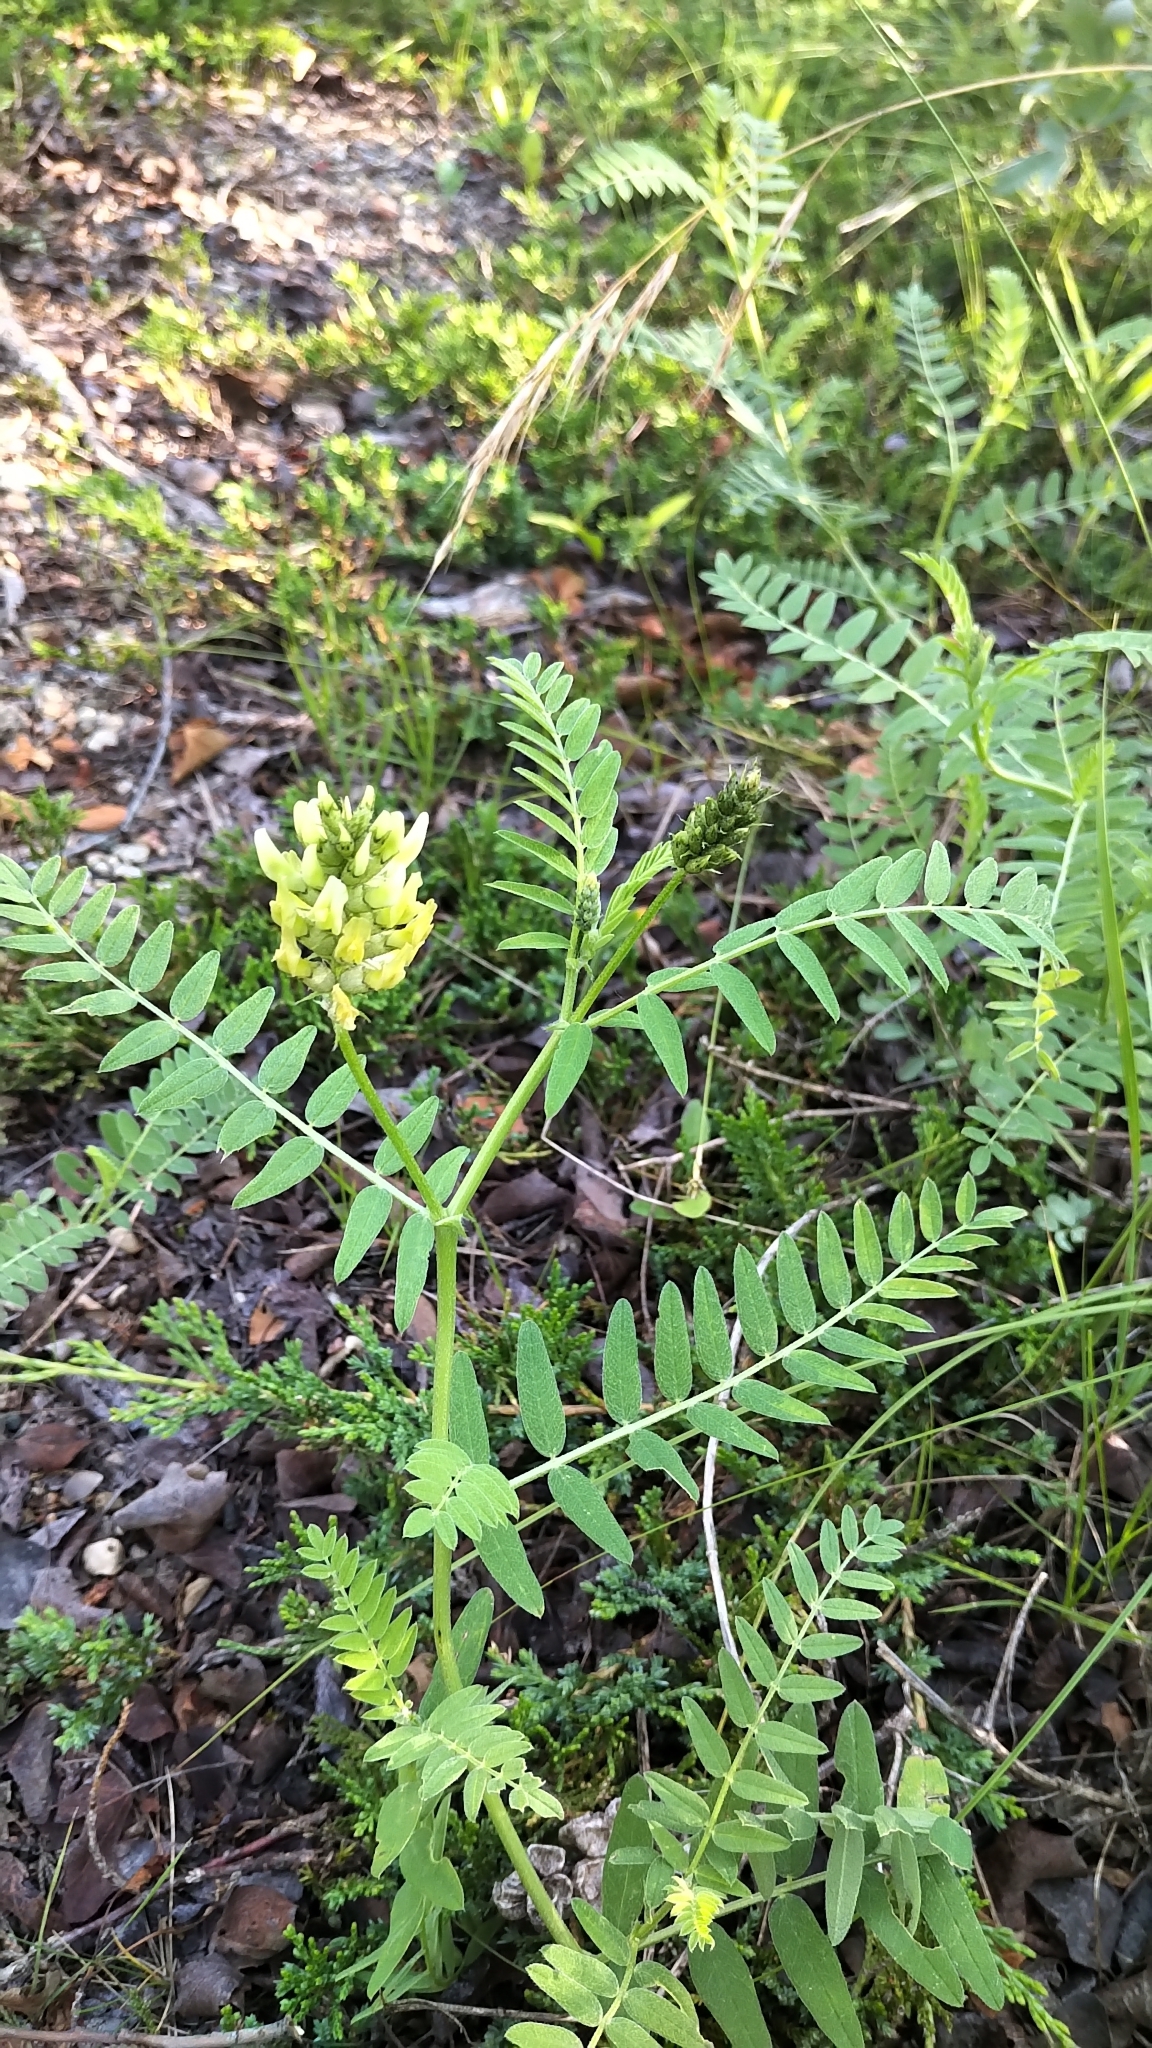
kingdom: Plantae
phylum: Tracheophyta
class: Magnoliopsida
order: Fabales
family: Fabaceae
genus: Astragalus
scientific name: Astragalus cicer
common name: Chick-pea milk-vetch
